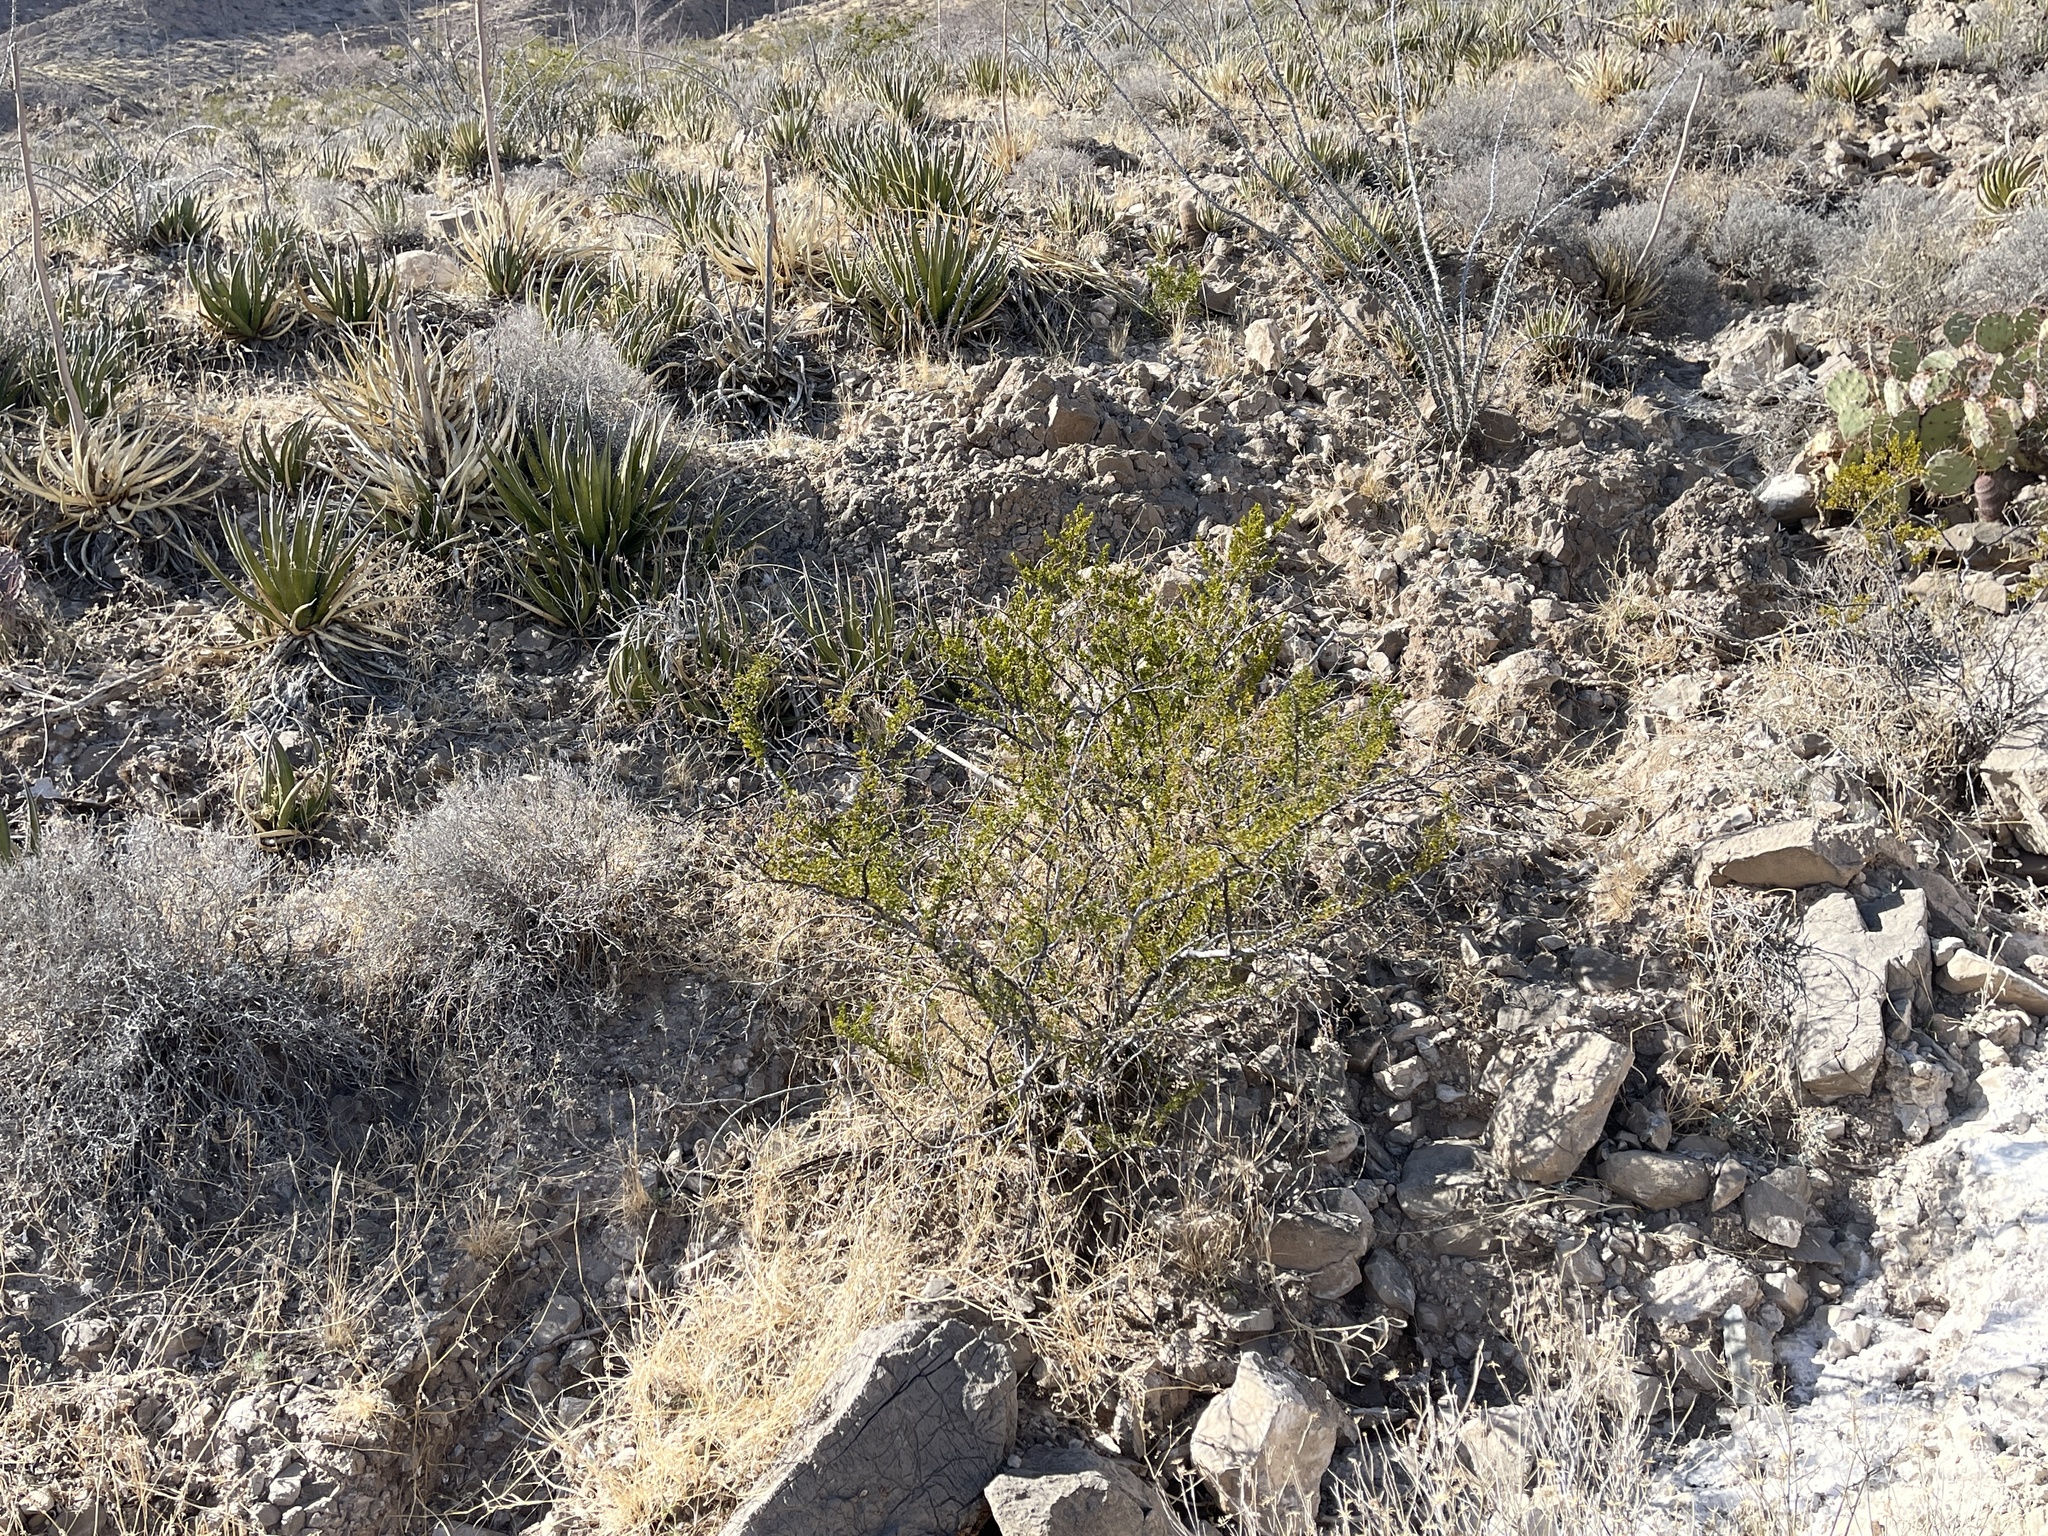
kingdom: Plantae
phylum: Tracheophyta
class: Magnoliopsida
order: Zygophyllales
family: Zygophyllaceae
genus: Larrea
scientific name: Larrea tridentata
